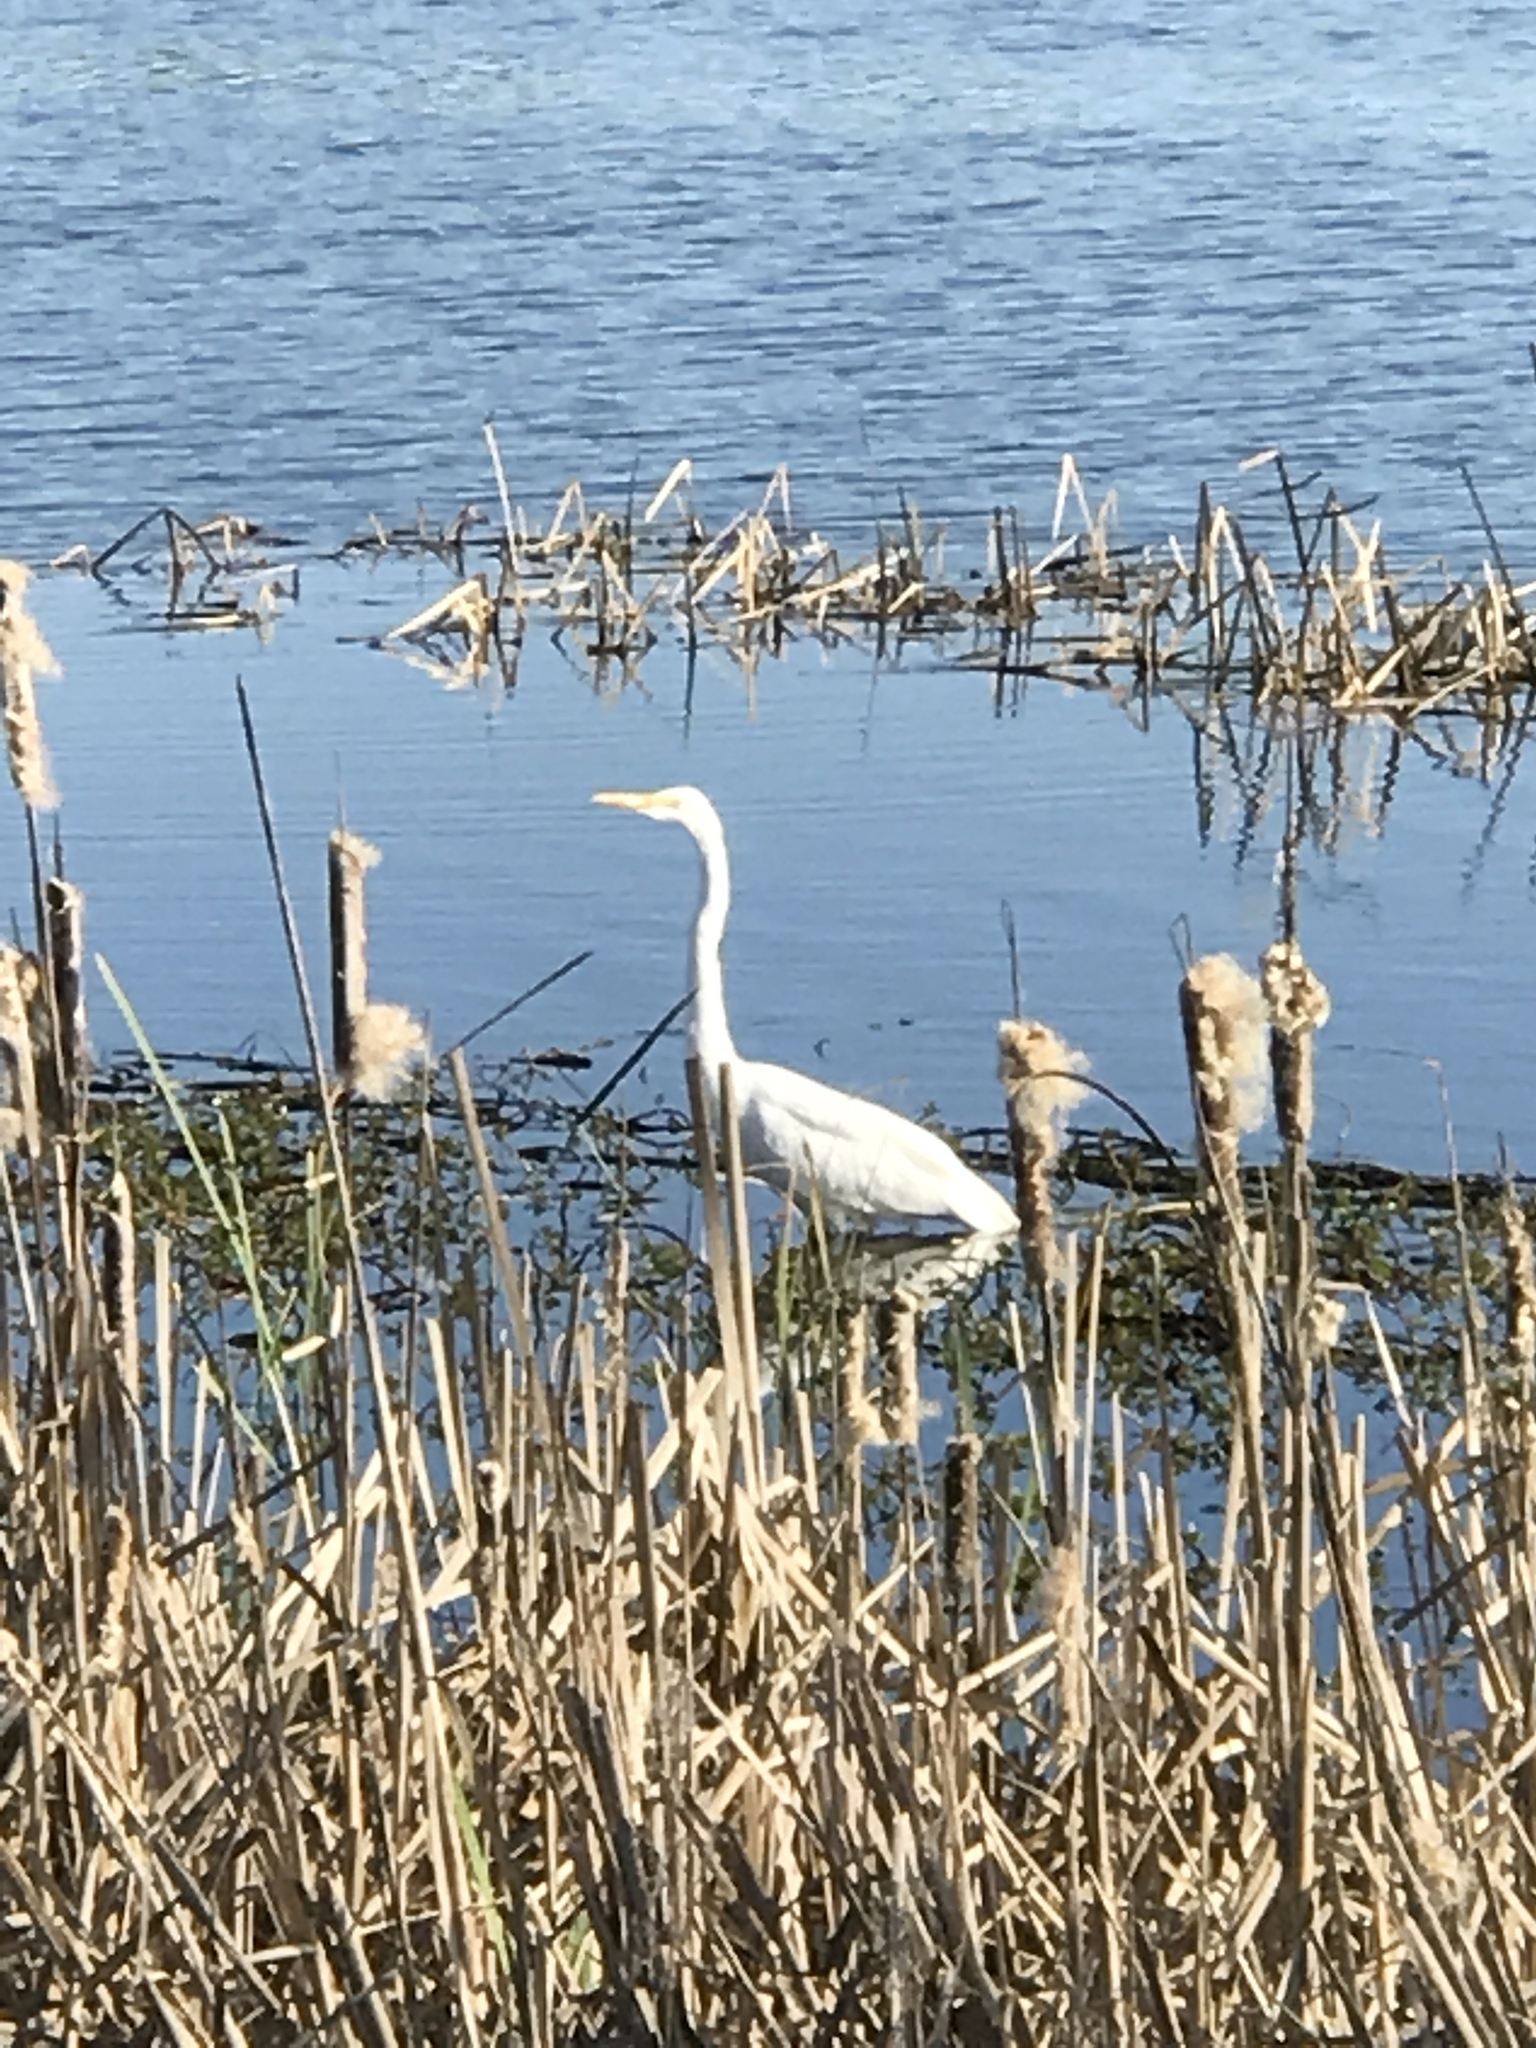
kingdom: Animalia
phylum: Chordata
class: Aves
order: Pelecaniformes
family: Ardeidae
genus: Ardea
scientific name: Ardea alba
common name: Great egret
